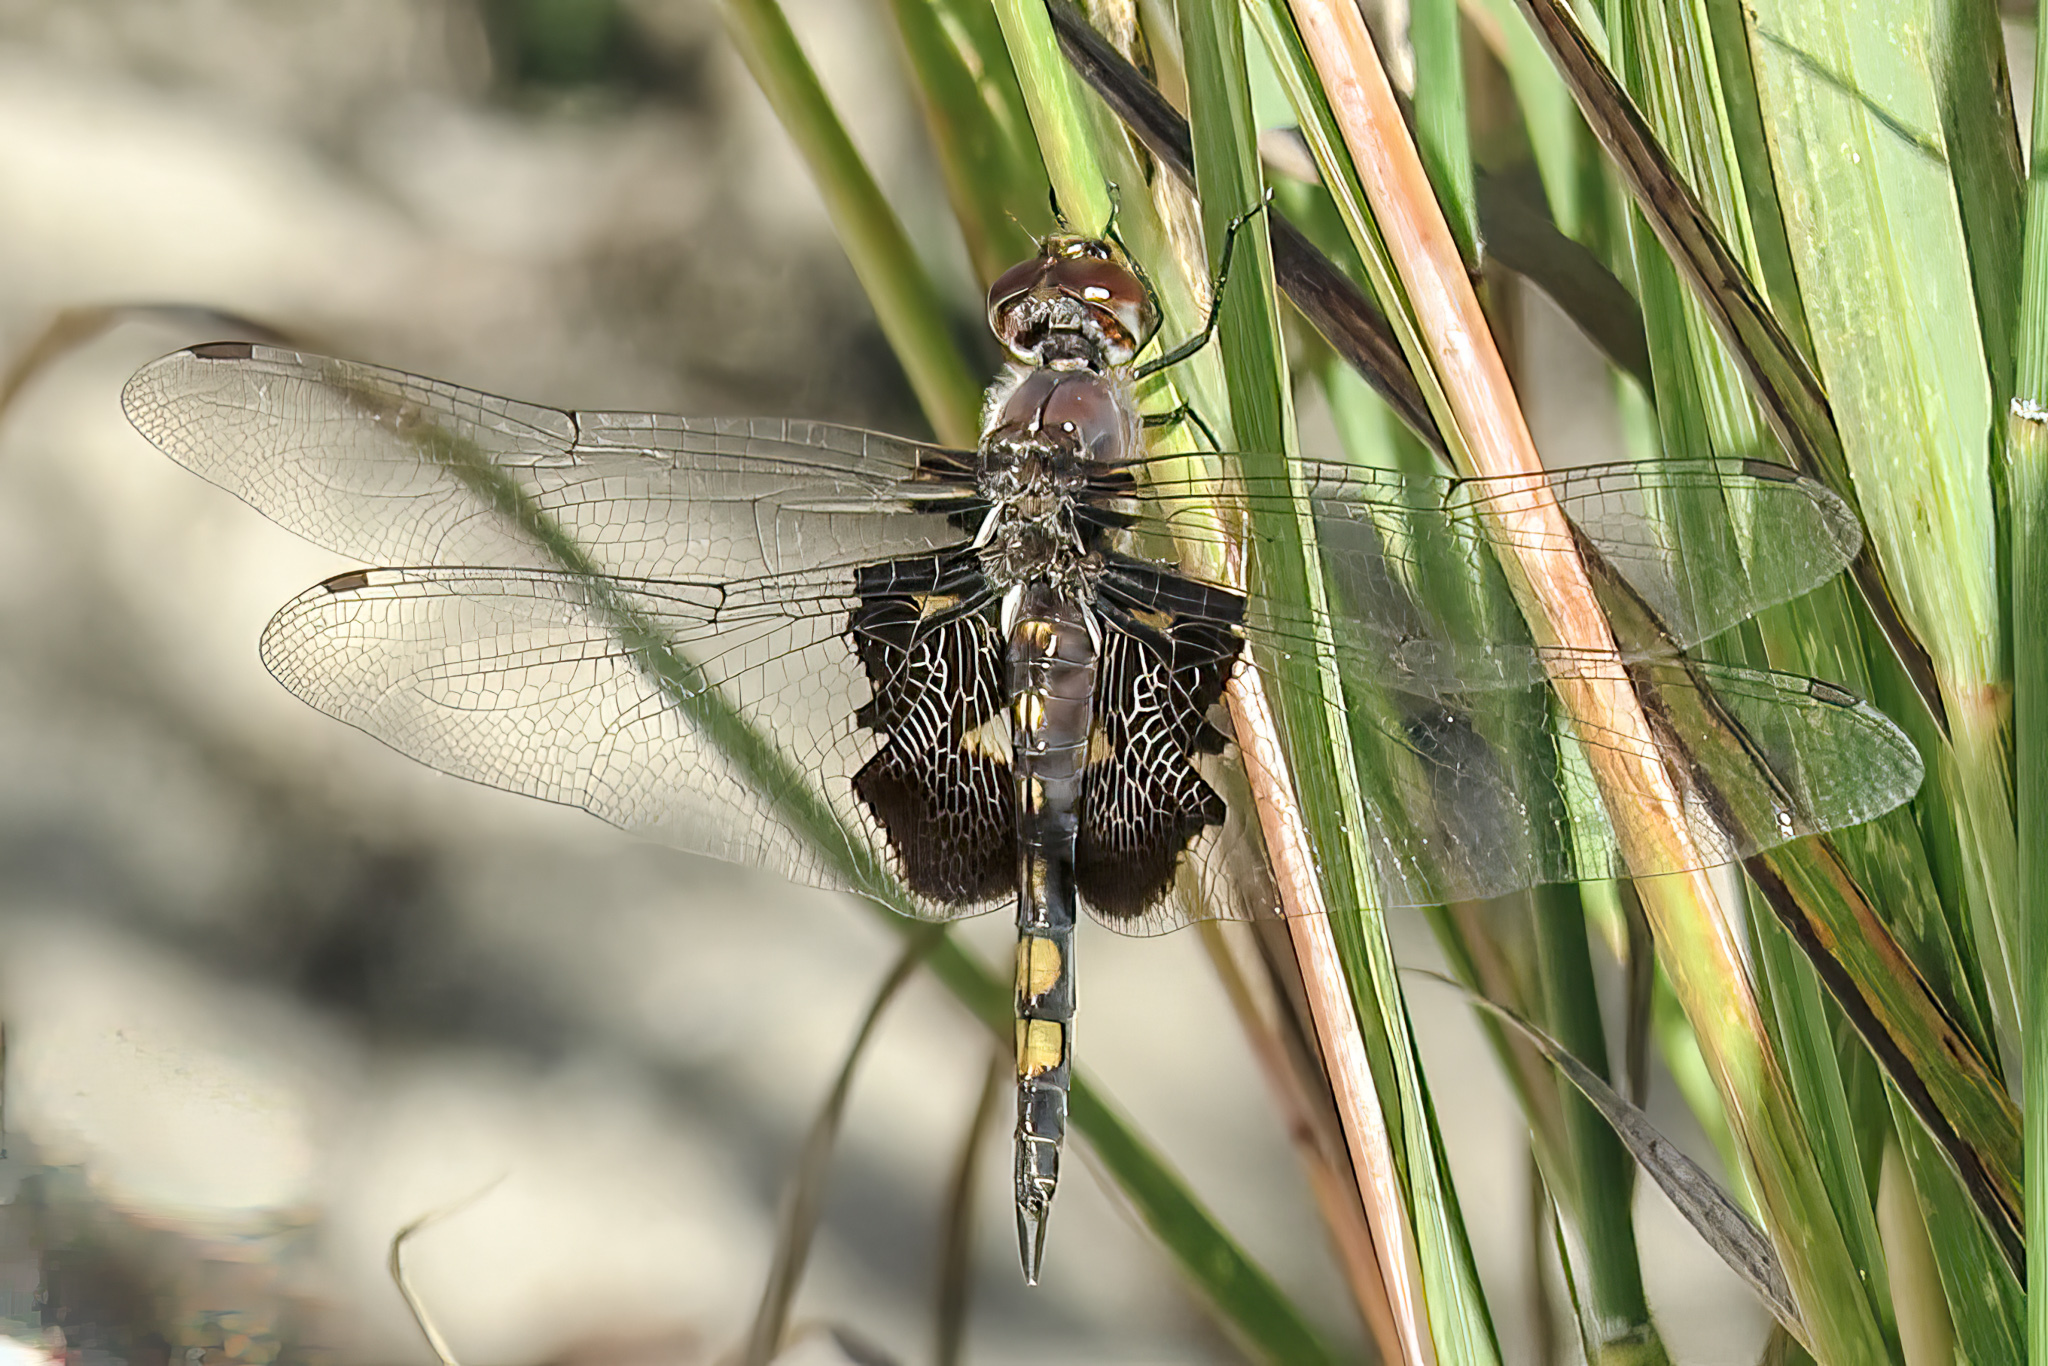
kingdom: Animalia
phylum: Arthropoda
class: Insecta
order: Odonata
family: Libellulidae
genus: Tramea
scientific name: Tramea lacerata
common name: Black saddlebags
